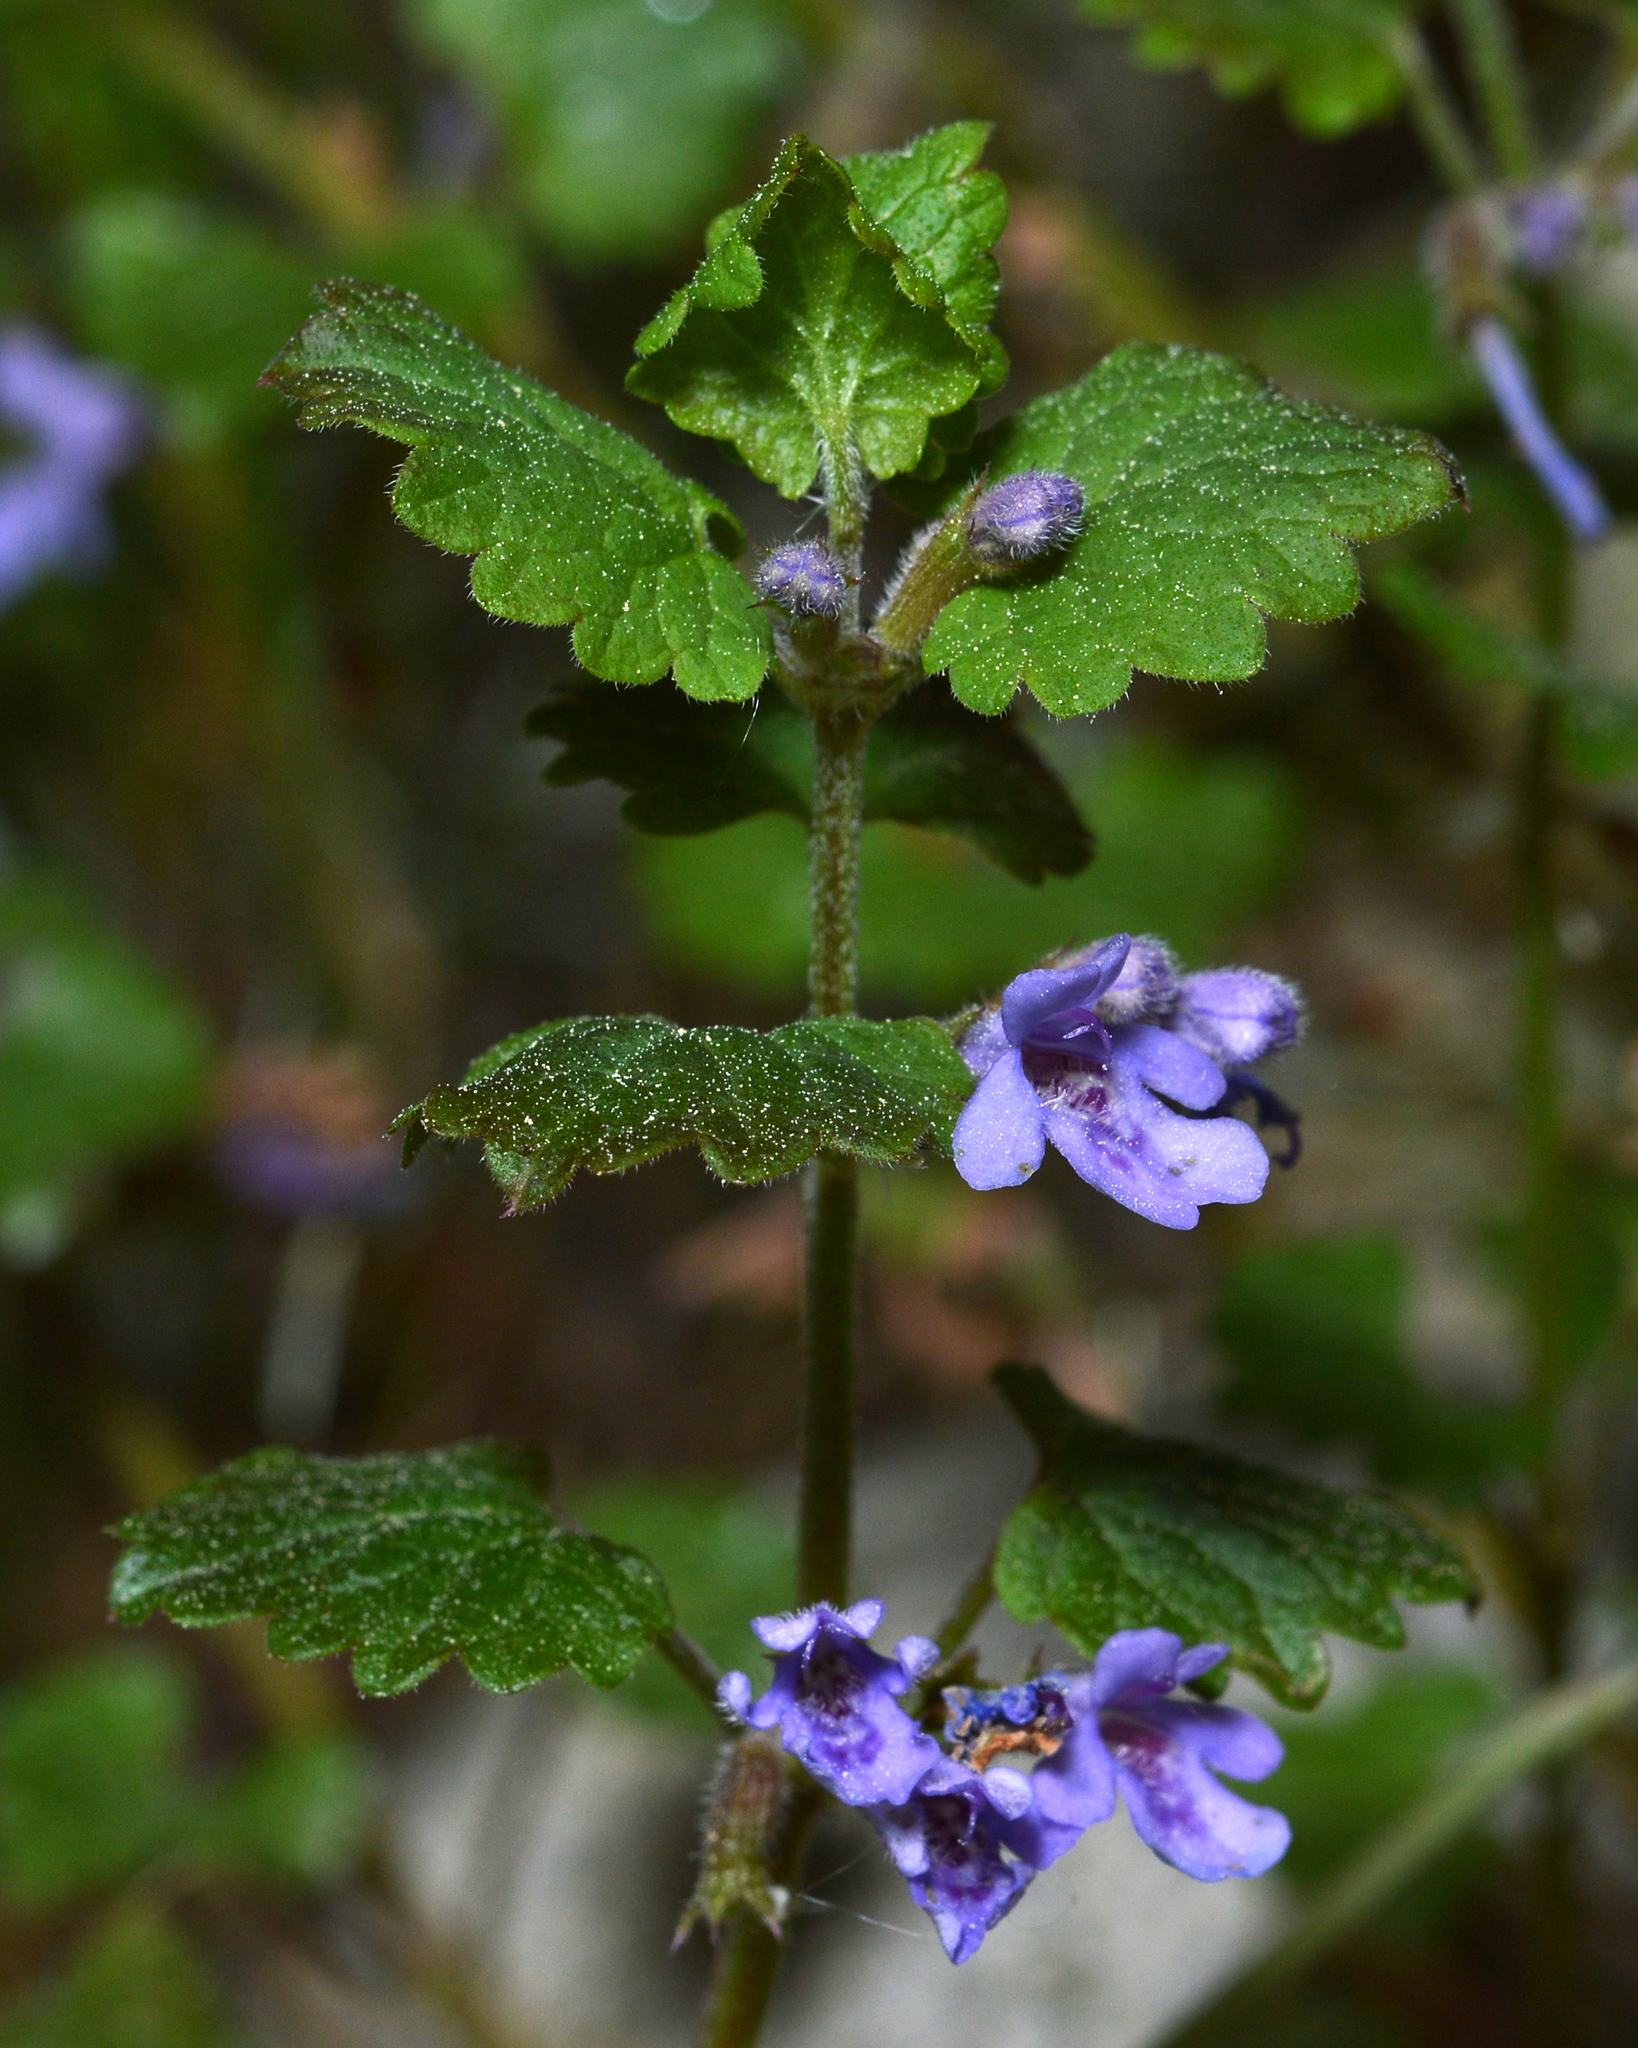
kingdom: Plantae
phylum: Tracheophyta
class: Magnoliopsida
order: Lamiales
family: Lamiaceae
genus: Glechoma
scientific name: Glechoma hederacea
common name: Ground ivy
